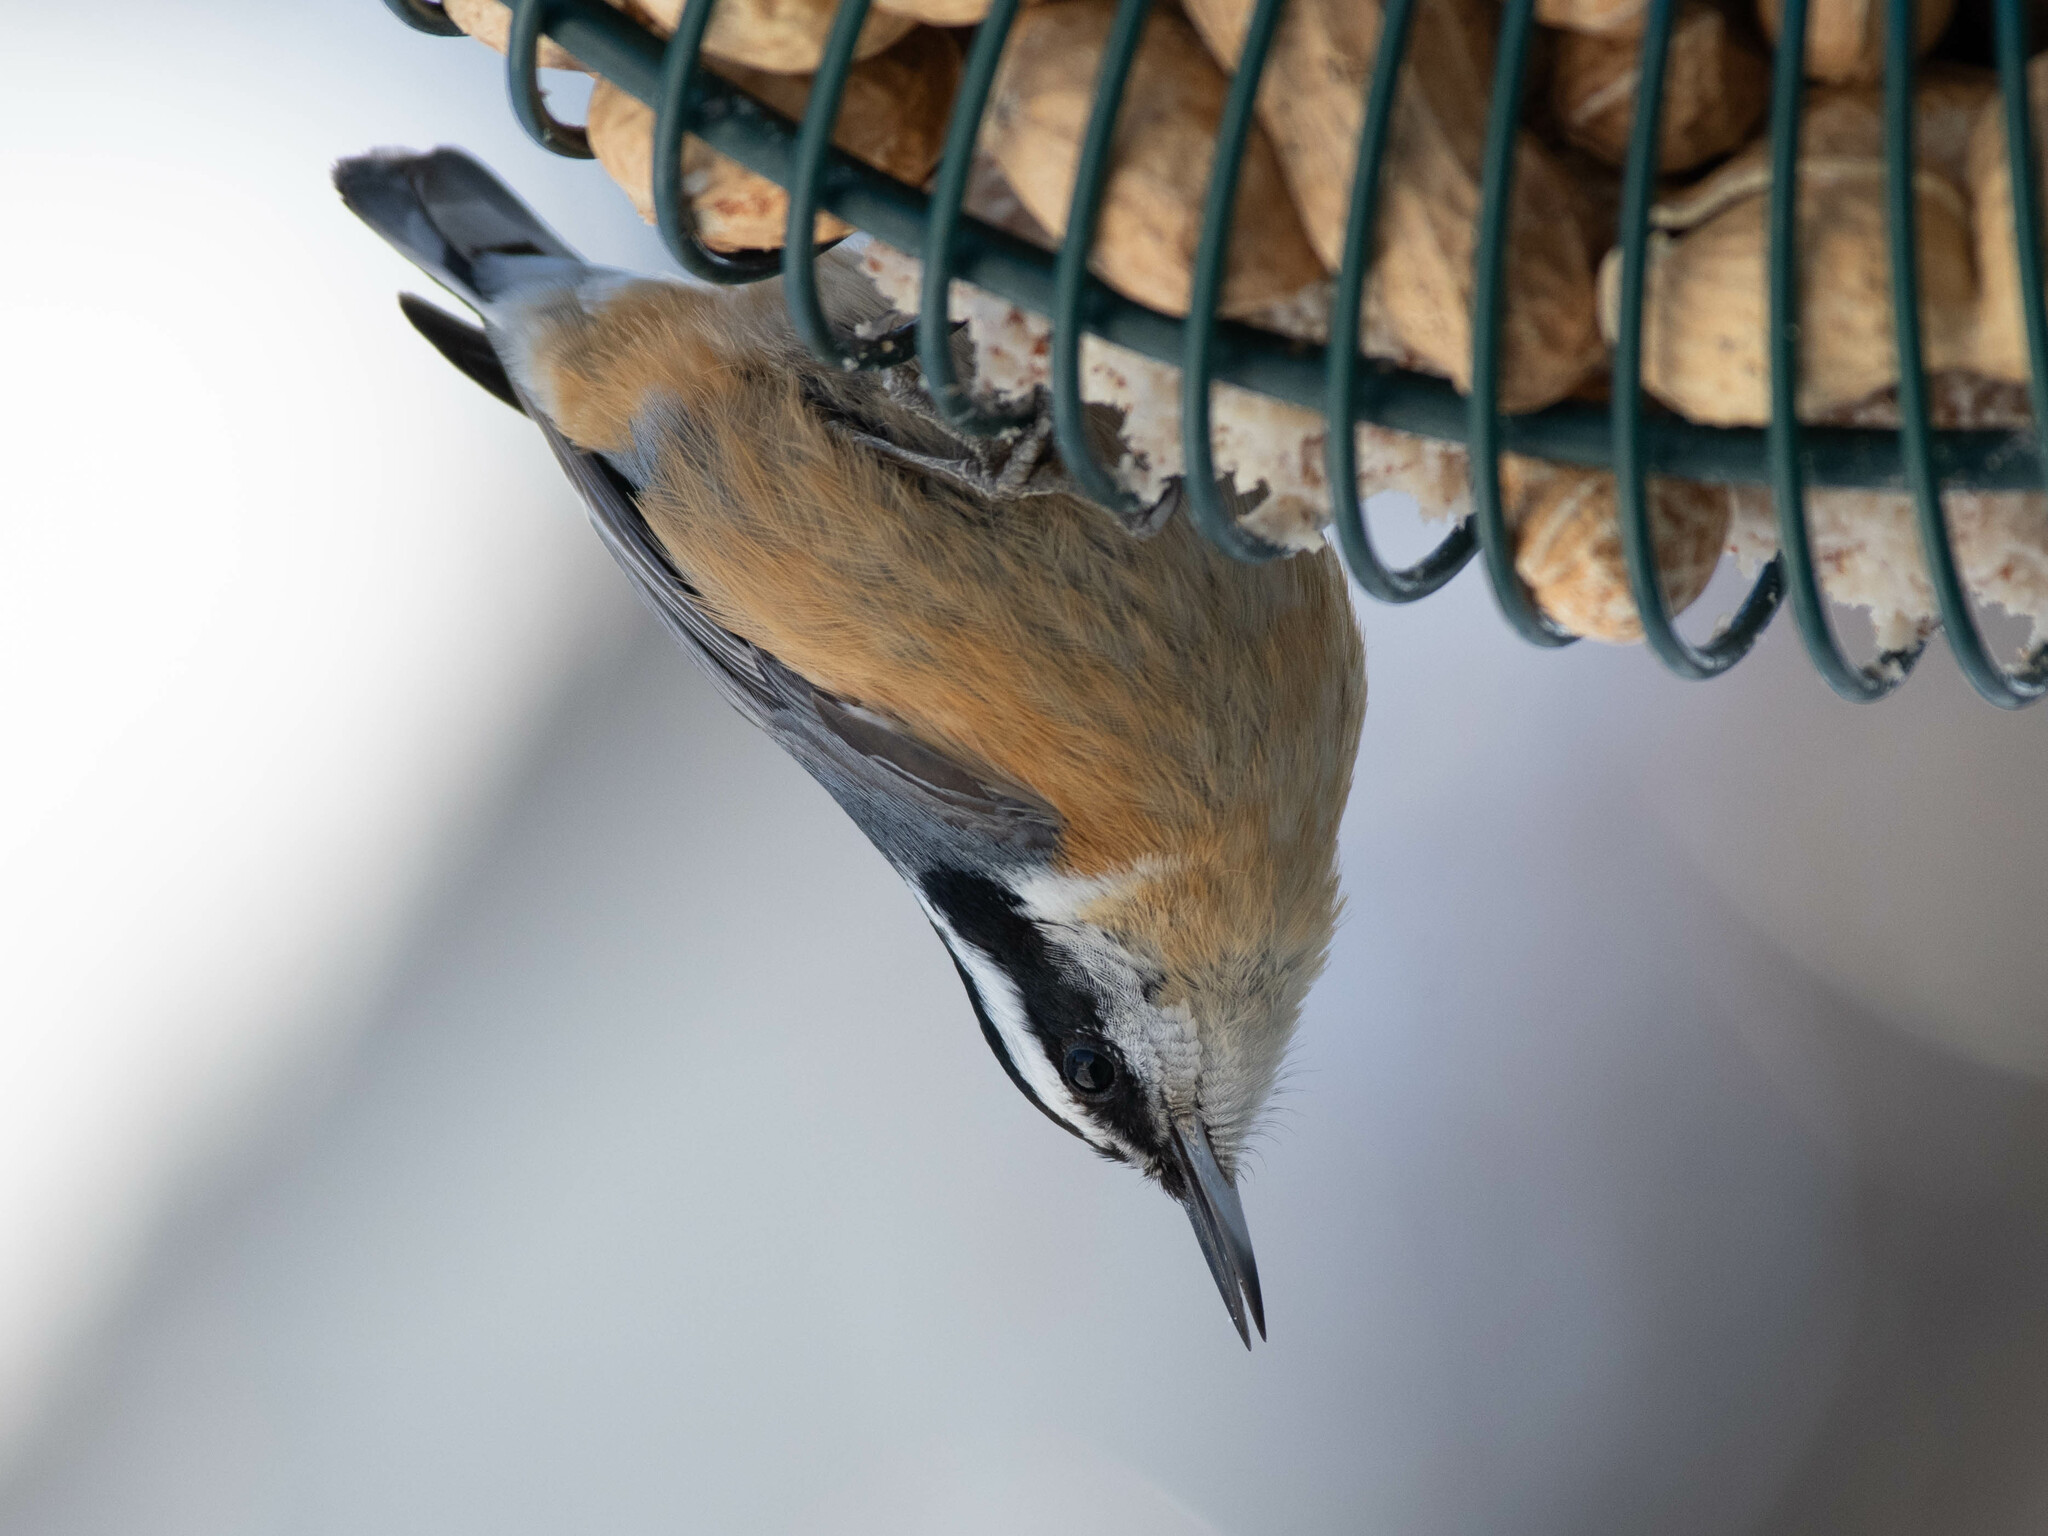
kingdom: Animalia
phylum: Chordata
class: Aves
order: Passeriformes
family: Sittidae
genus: Sitta
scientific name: Sitta canadensis
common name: Red-breasted nuthatch
